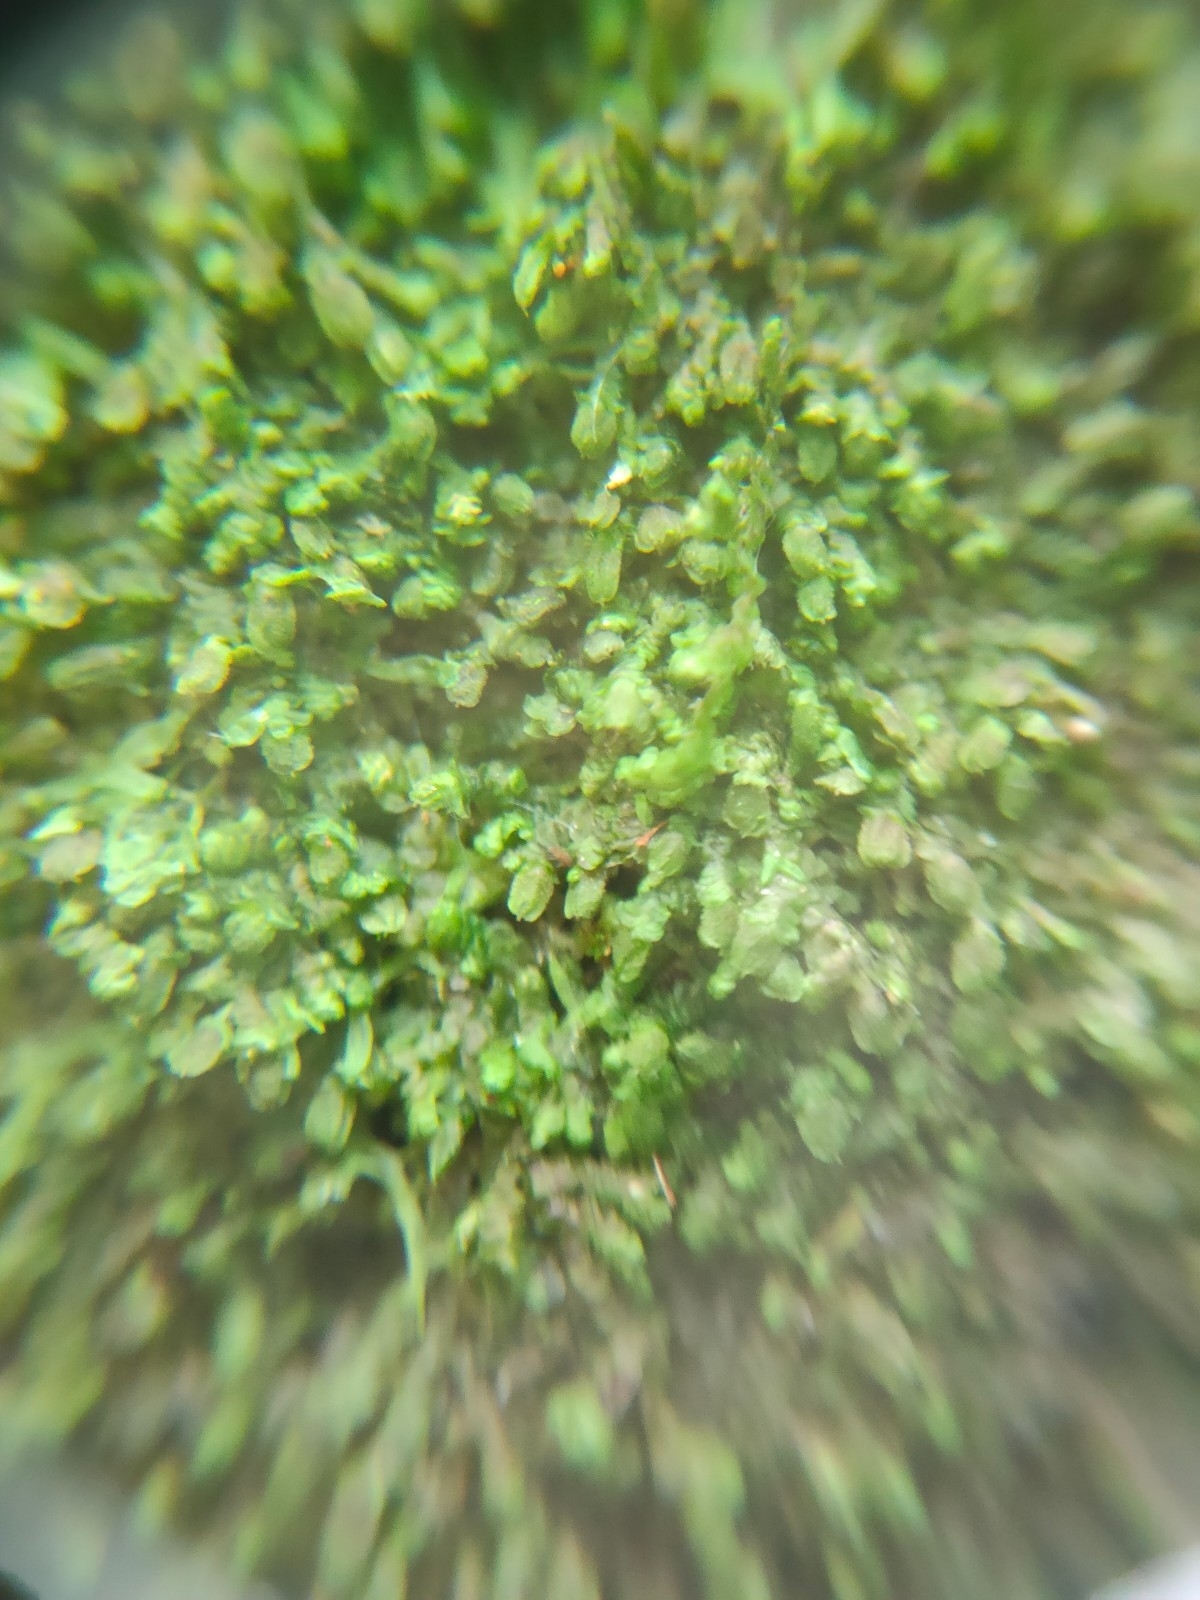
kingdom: Plantae
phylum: Marchantiophyta
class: Jungermanniopsida
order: Porellales
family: Frullaniaceae
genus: Frullania
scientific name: Frullania dilatata
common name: Dilated scalewort
